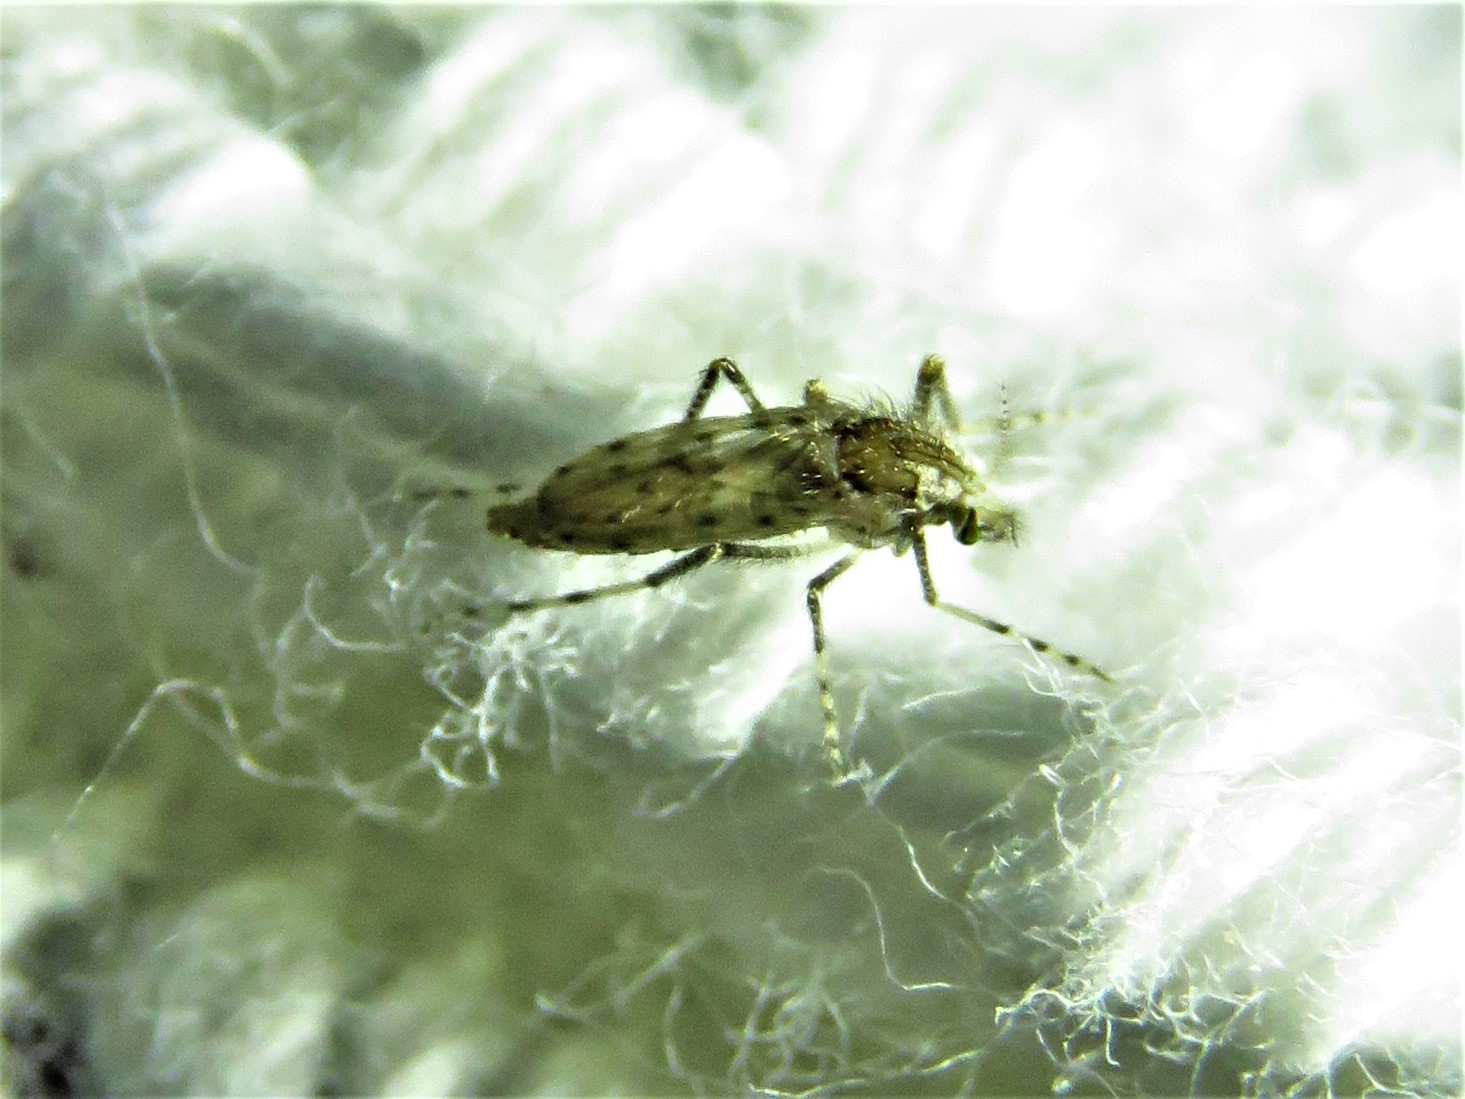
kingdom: Animalia
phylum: Arthropoda
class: Insecta
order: Diptera
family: Chaoboridae
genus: Chaoborus
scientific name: Chaoborus punctipennis
